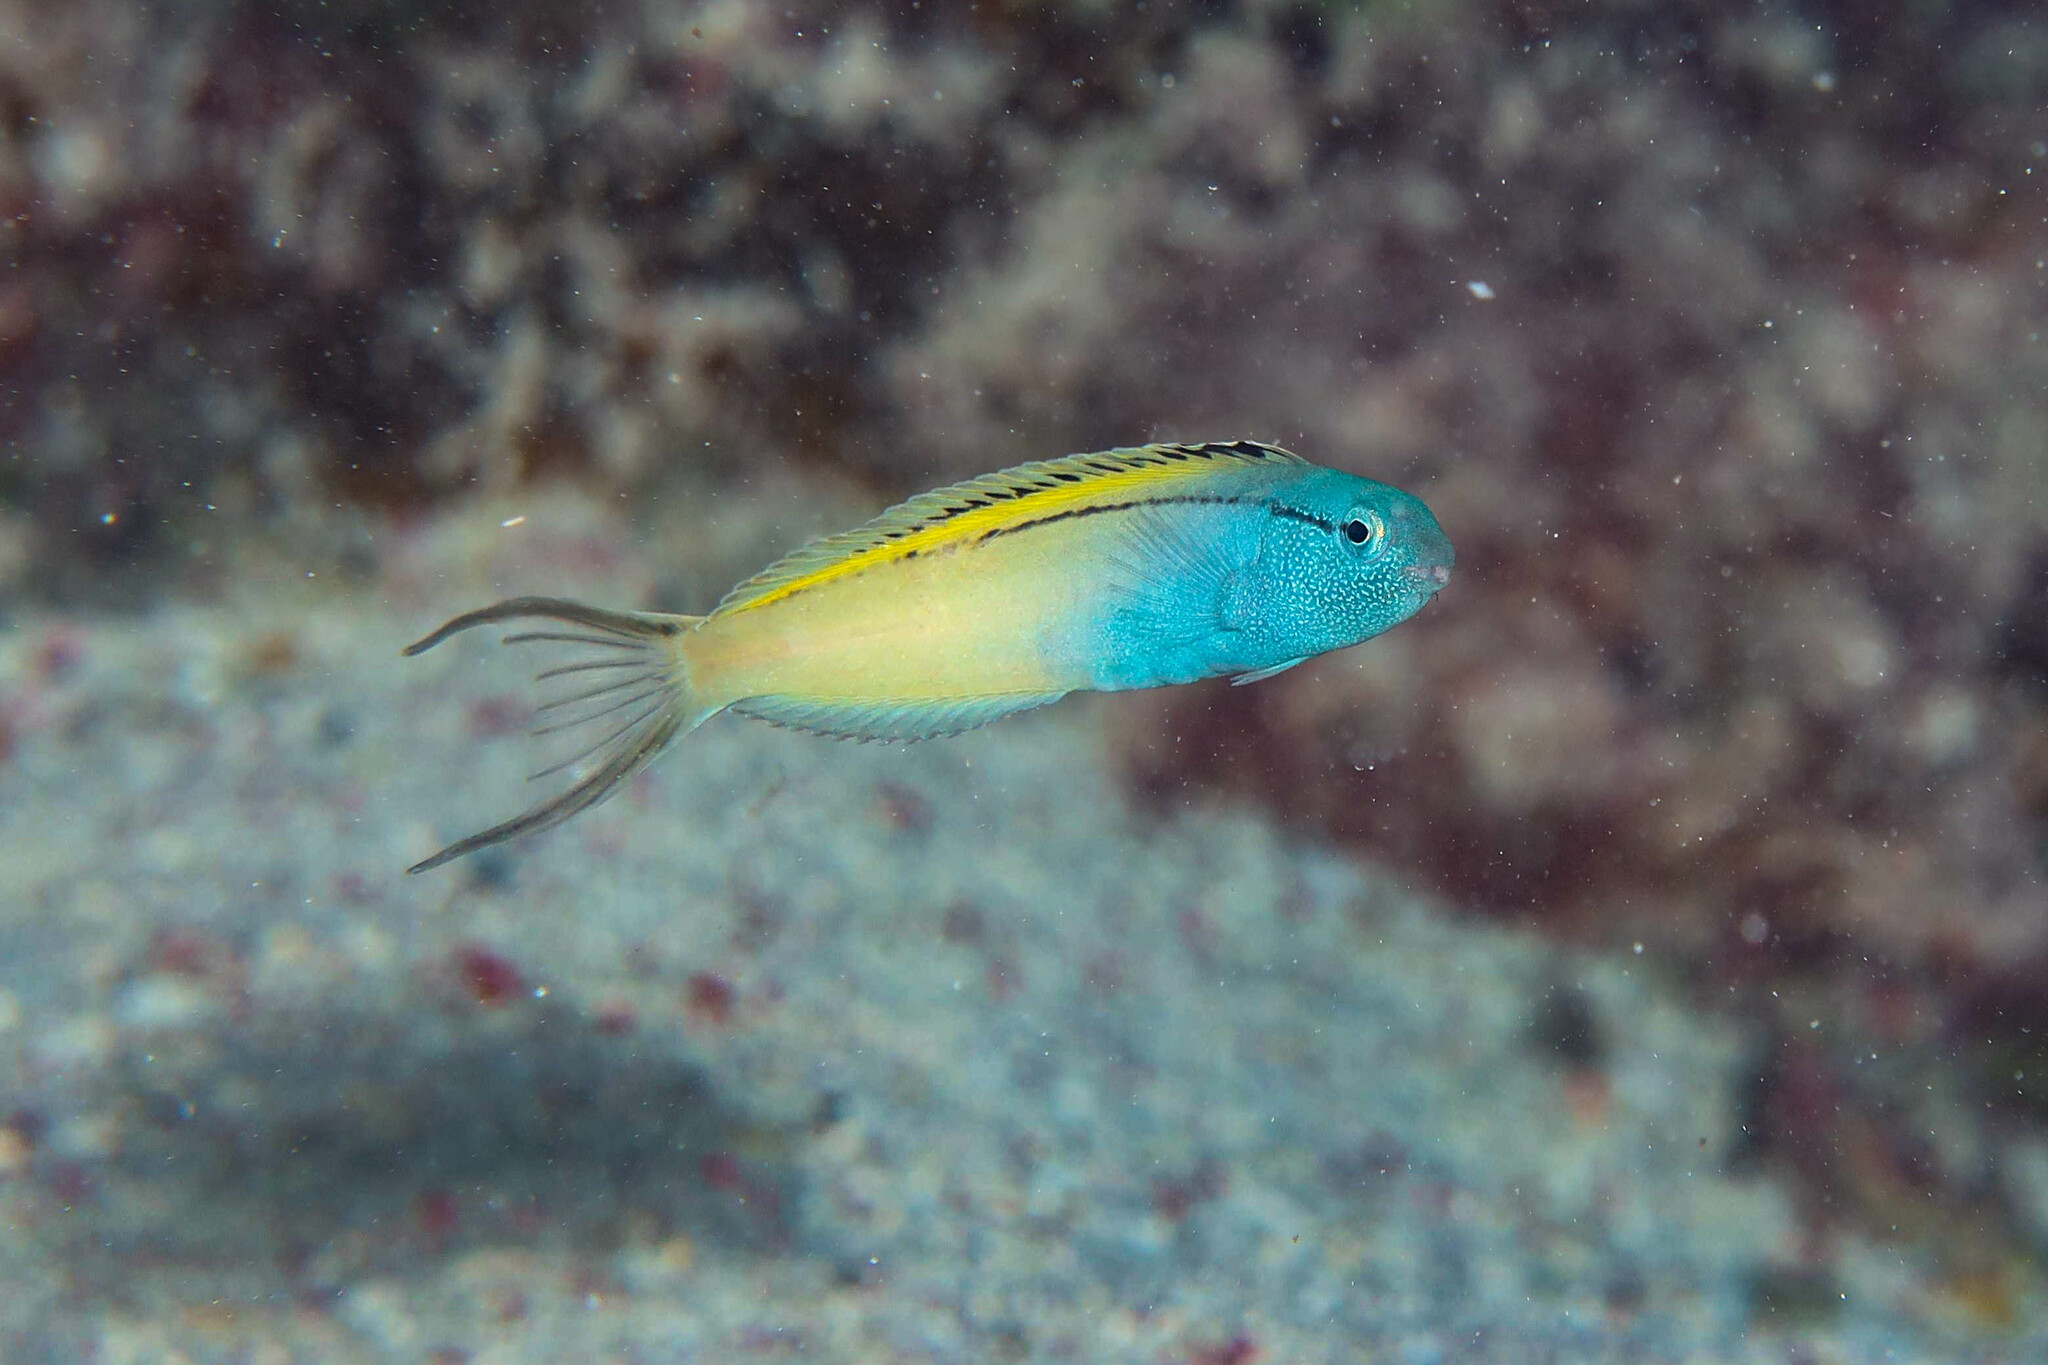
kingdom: Animalia
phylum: Chordata
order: Perciformes
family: Blenniidae
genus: Meiacanthus
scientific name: Meiacanthus nigrolineatus
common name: Blackline fangblenny
